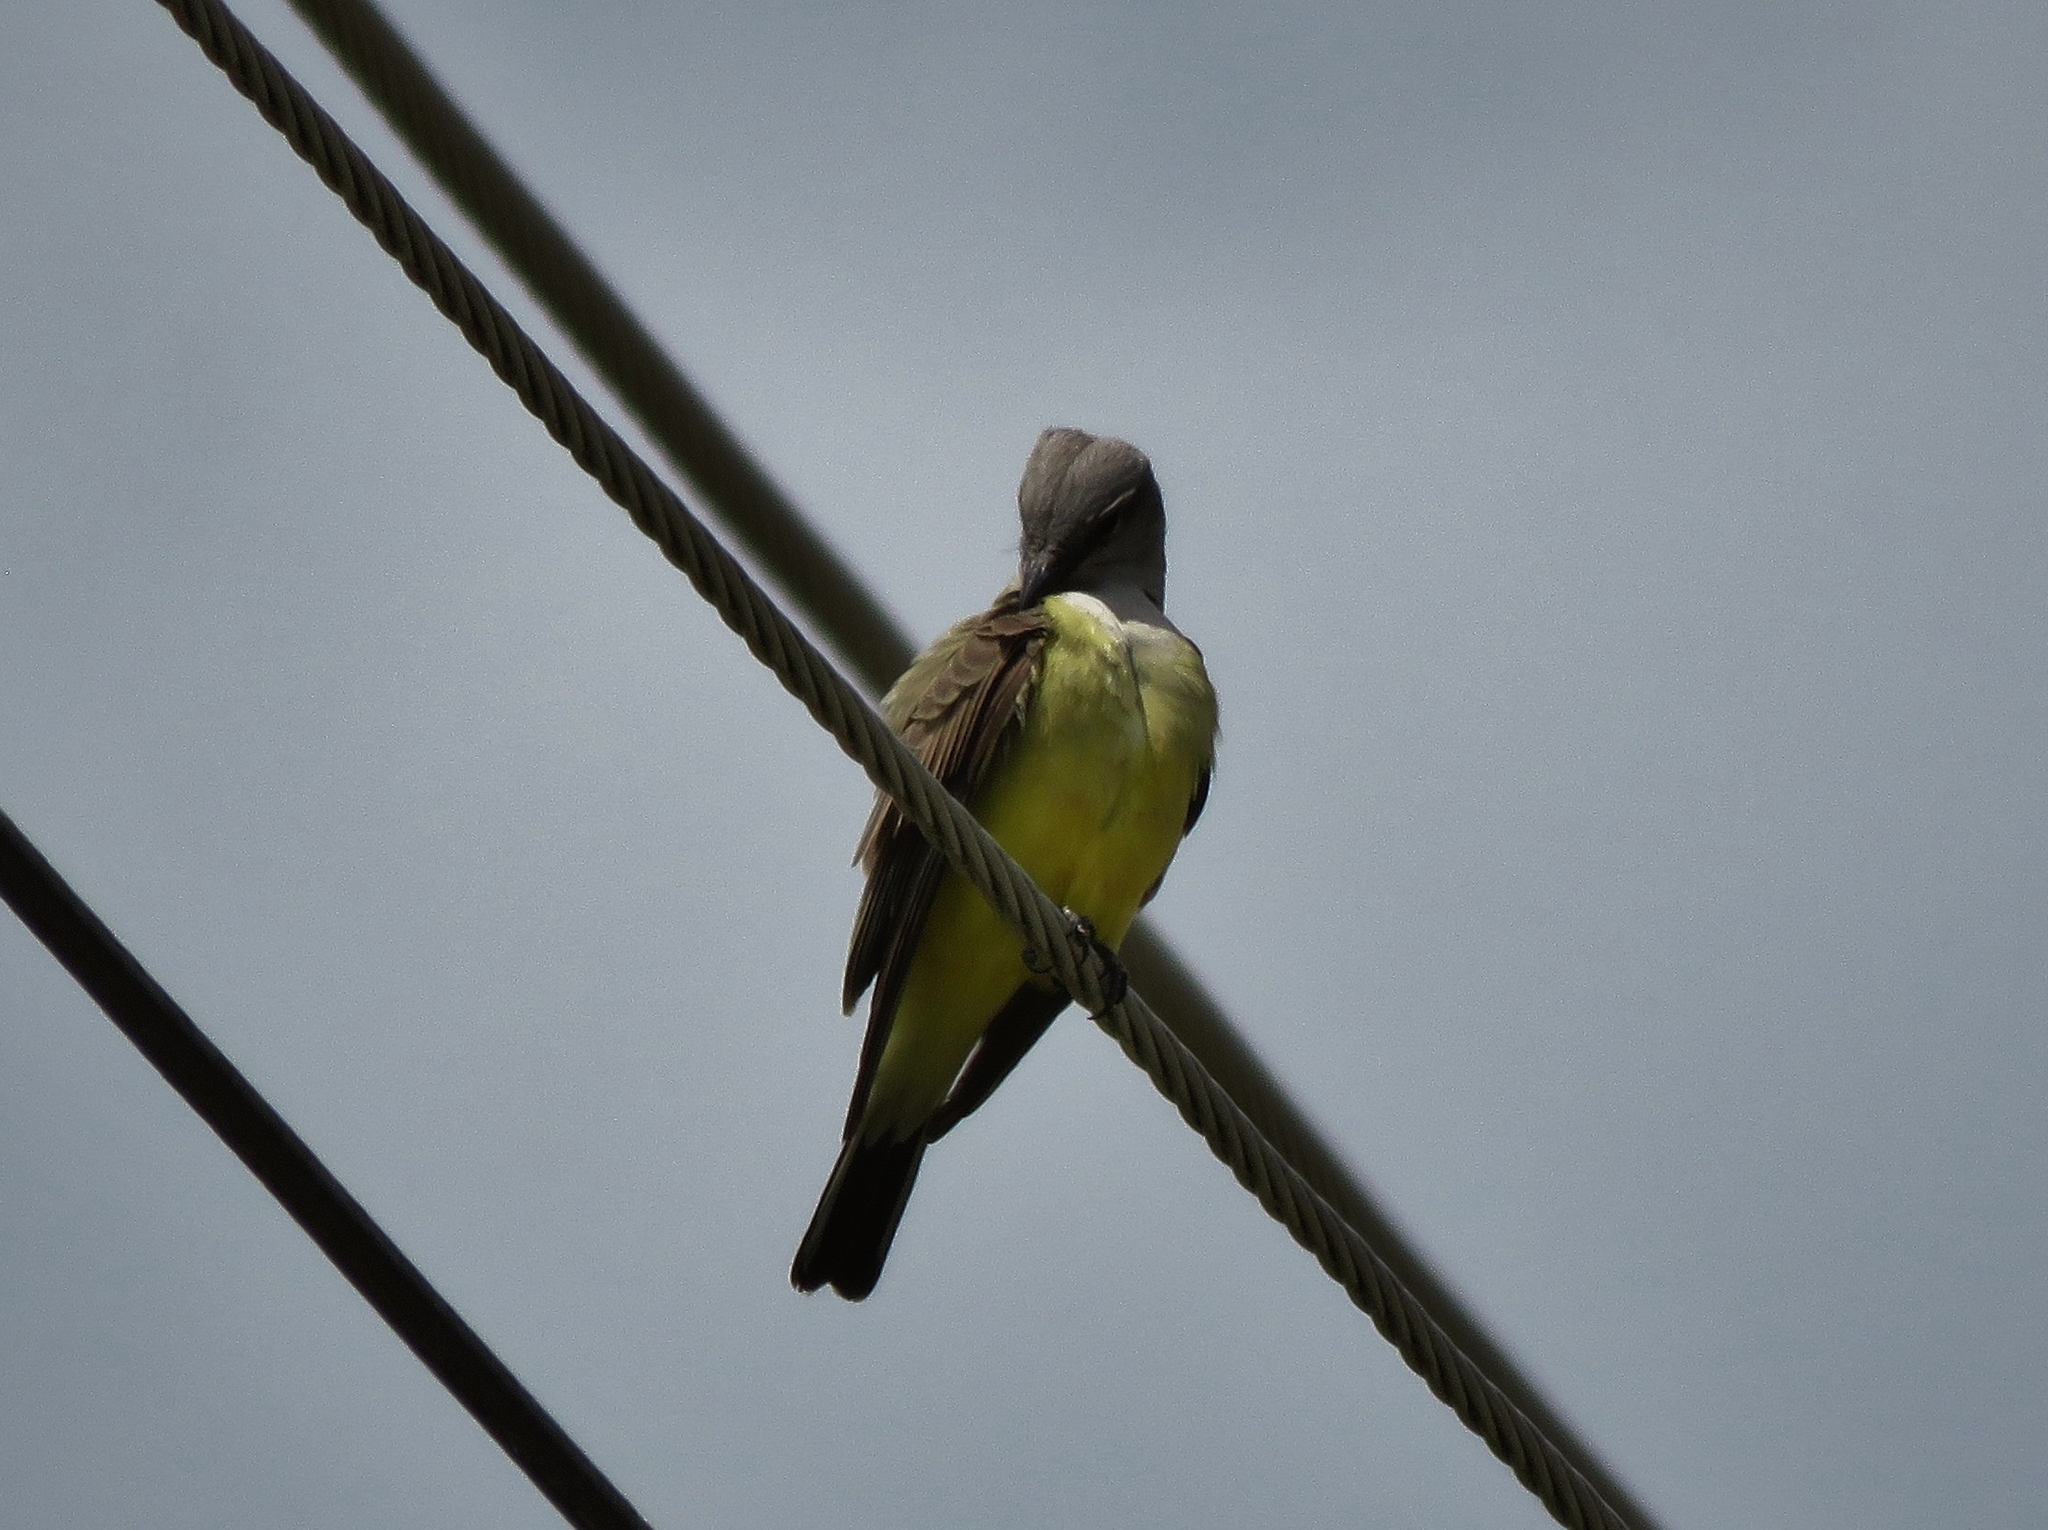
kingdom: Animalia
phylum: Chordata
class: Aves
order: Passeriformes
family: Tyrannidae
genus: Tyrannus
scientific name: Tyrannus verticalis
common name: Western kingbird
